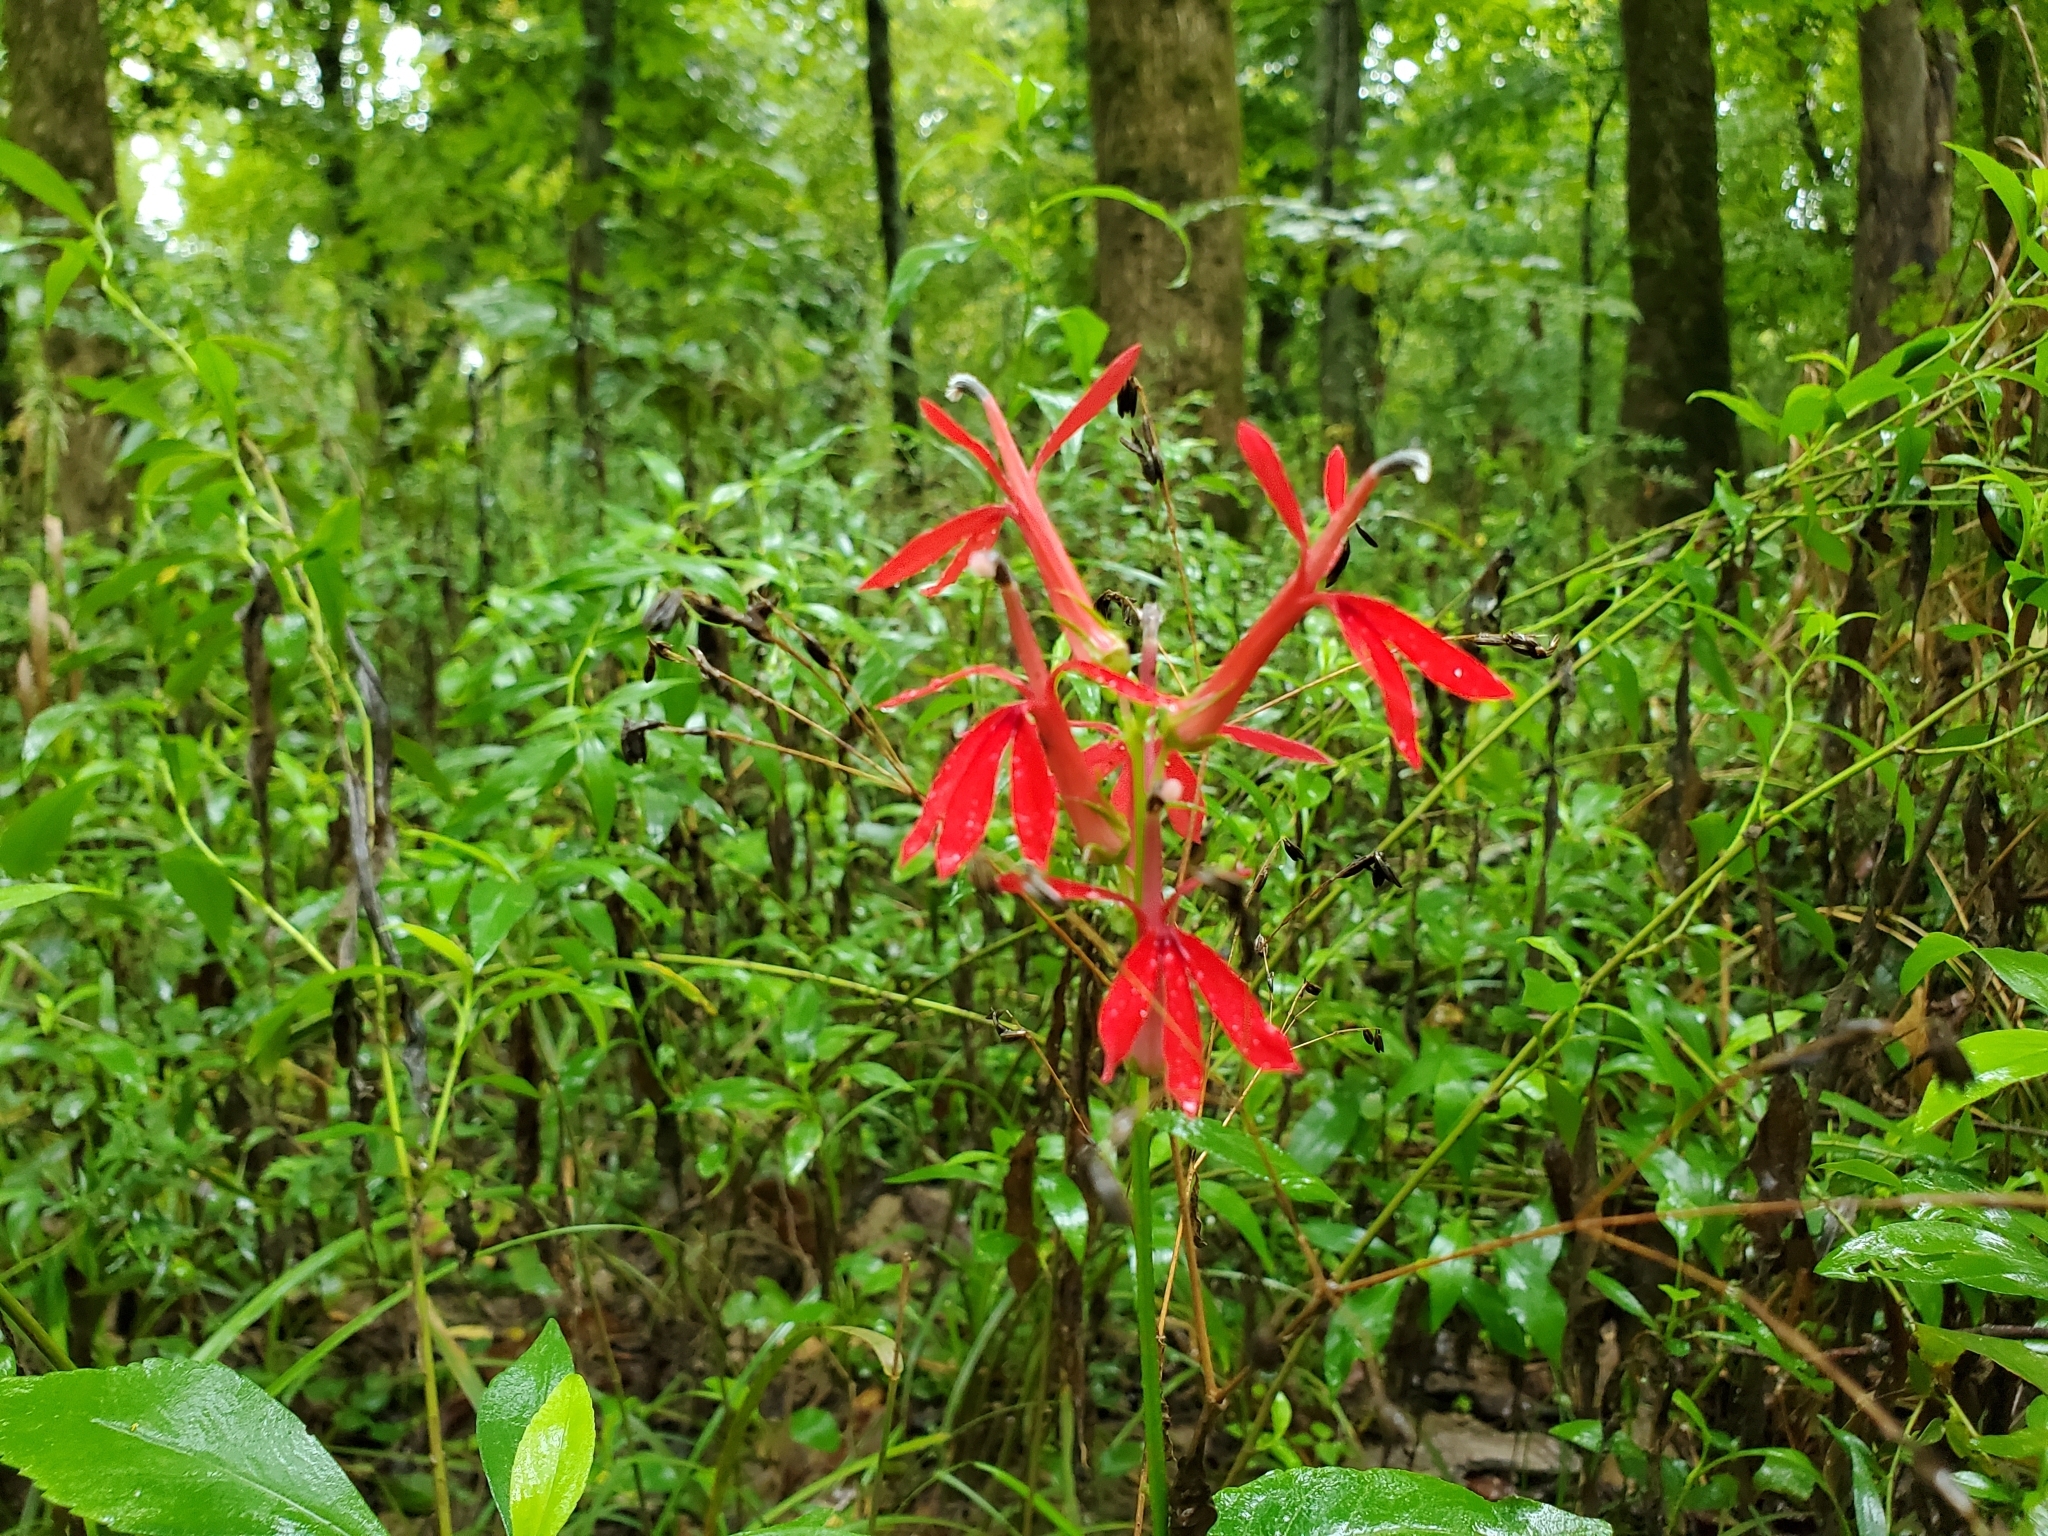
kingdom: Plantae
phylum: Tracheophyta
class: Magnoliopsida
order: Asterales
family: Campanulaceae
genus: Lobelia
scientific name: Lobelia cardinalis
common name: Cardinal flower
